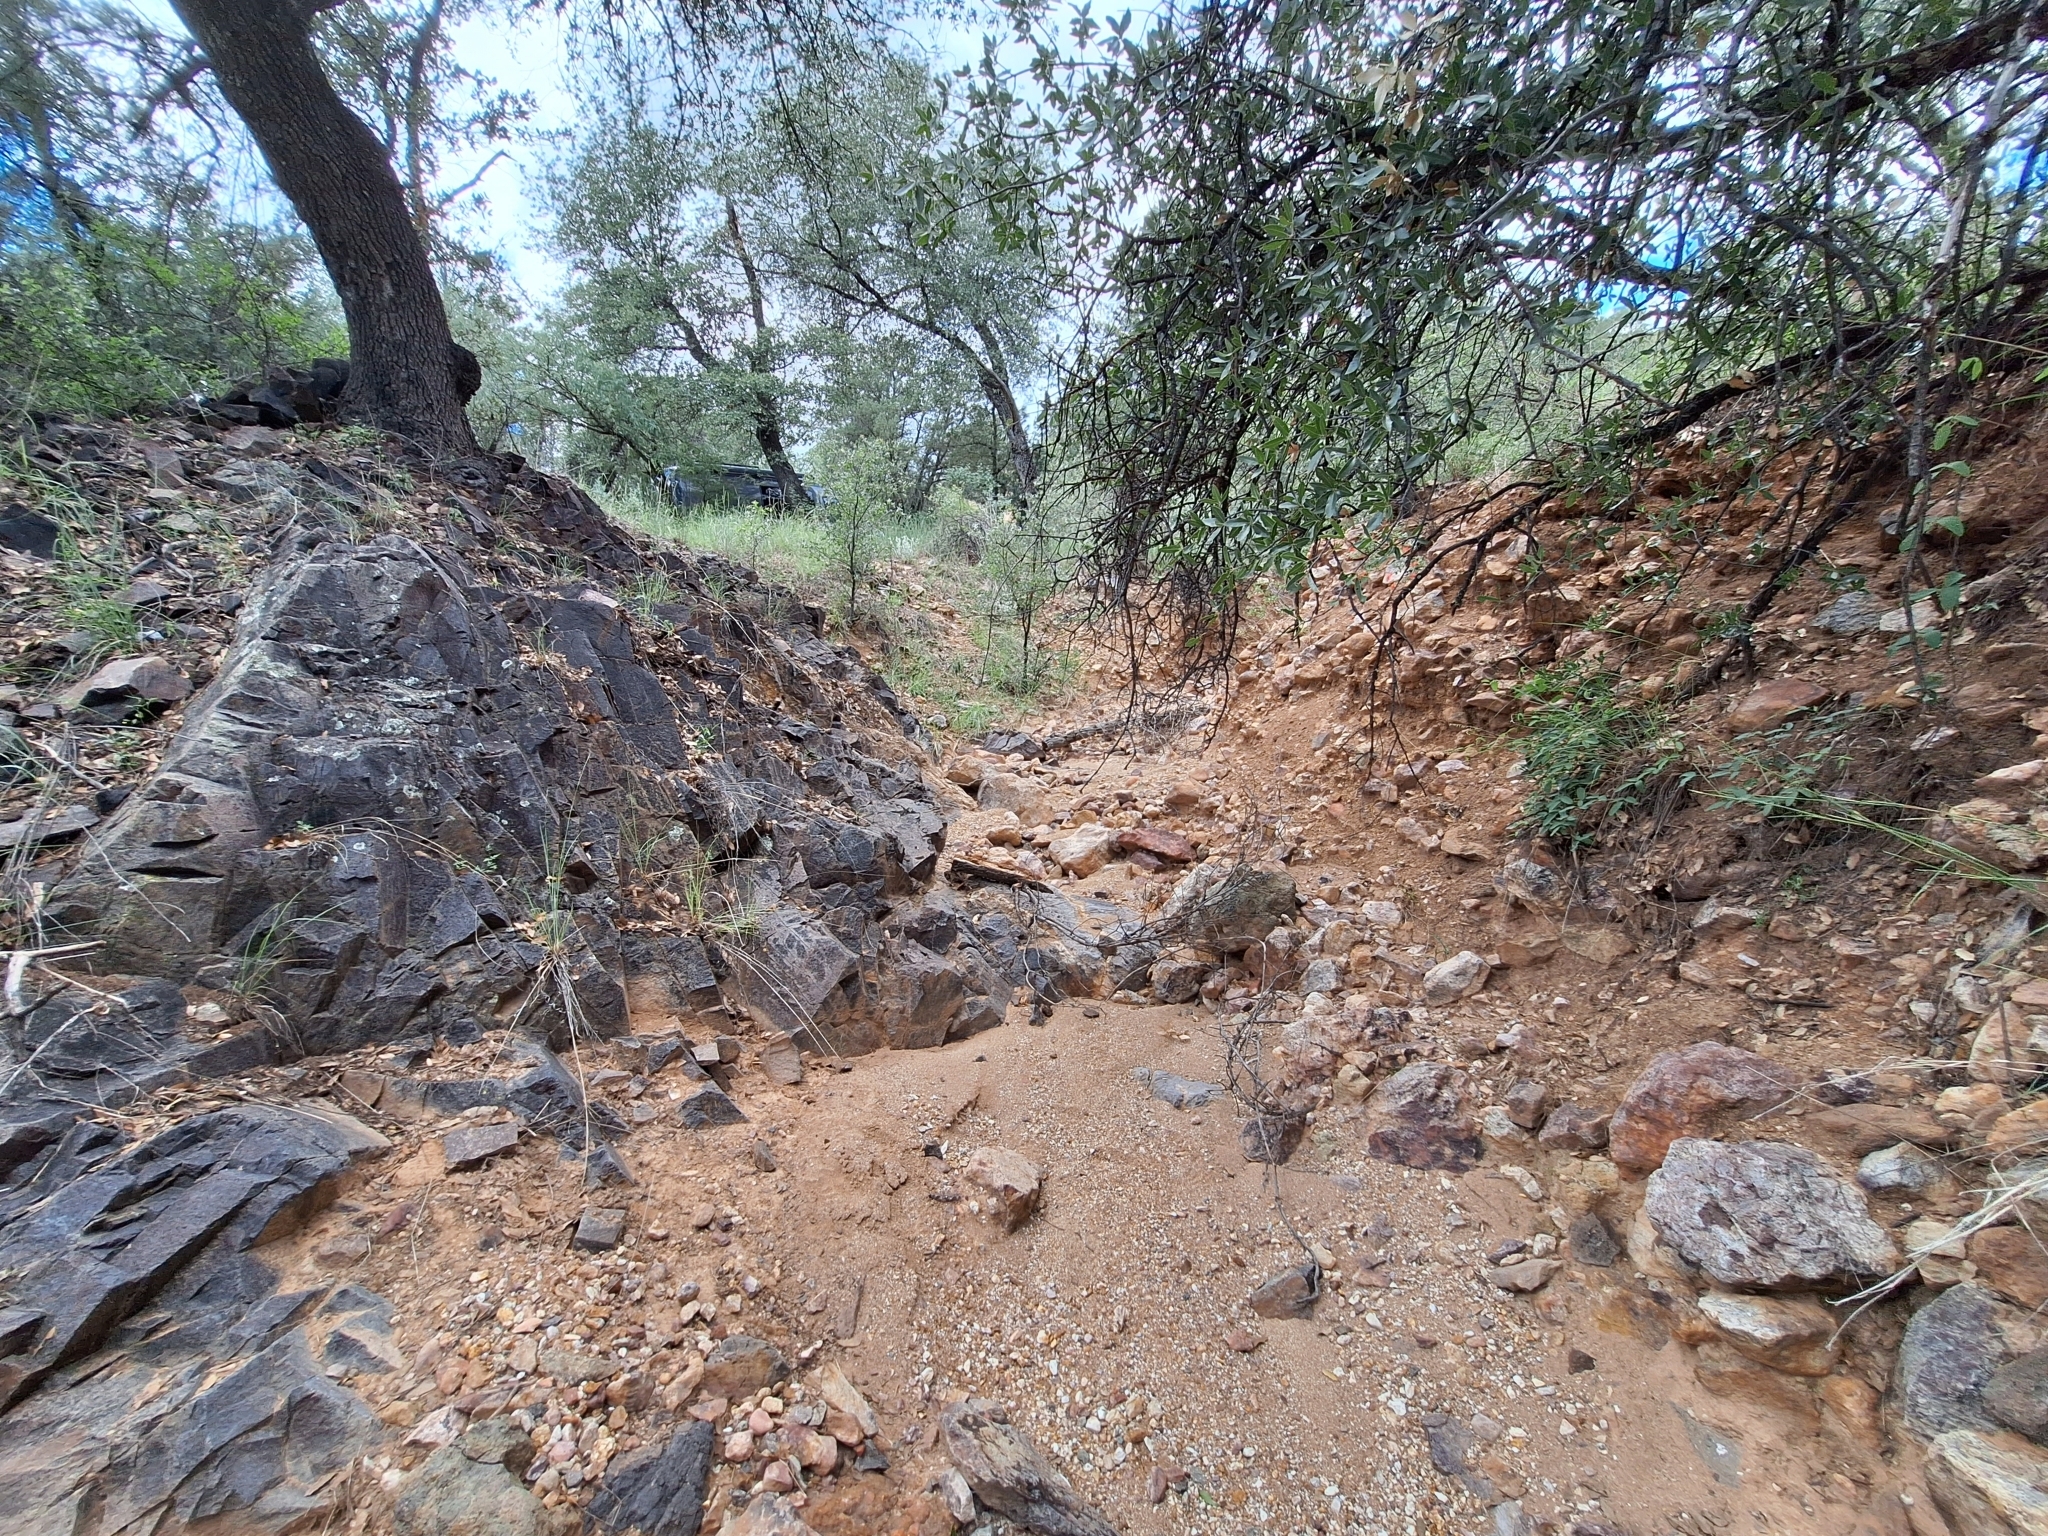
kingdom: Animalia
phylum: Arthropoda
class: Insecta
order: Hymenoptera
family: Formicidae
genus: Pheidole
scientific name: Pheidole rhea
